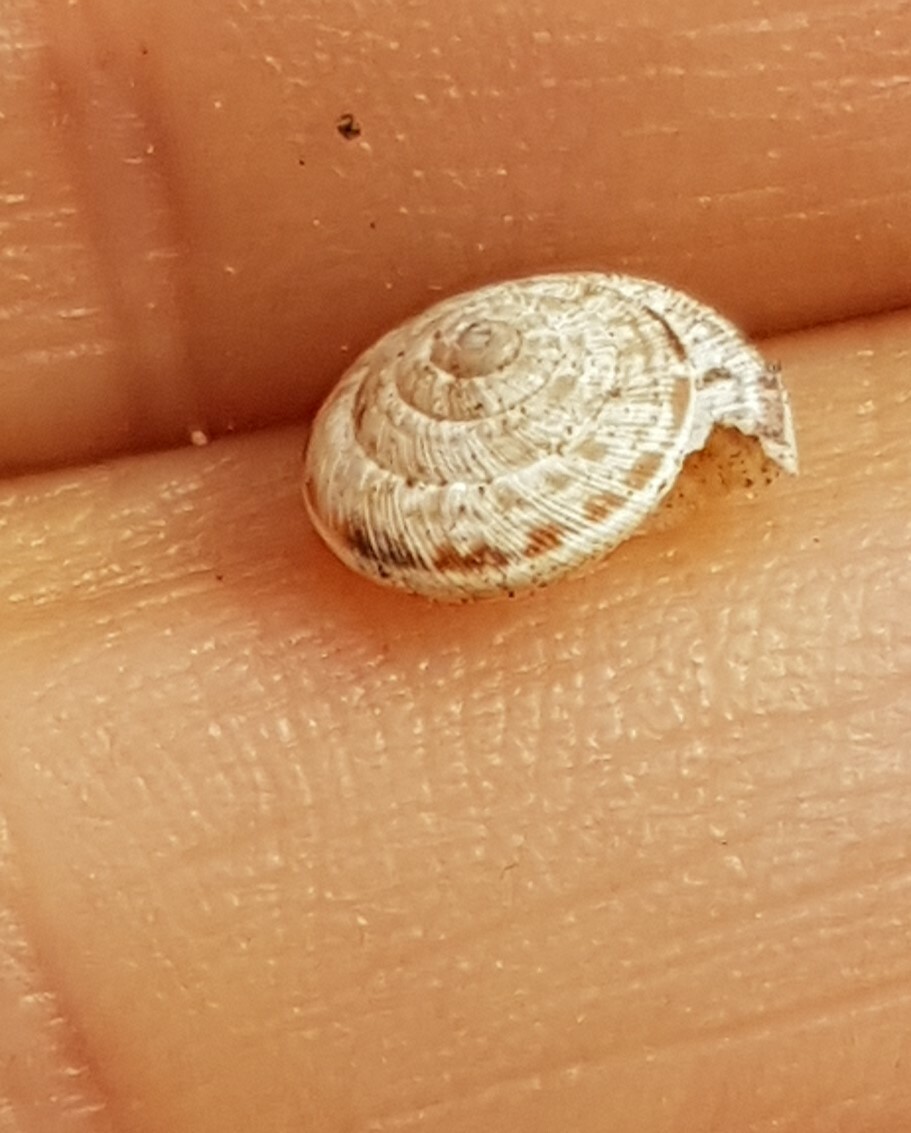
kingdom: Animalia
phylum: Mollusca
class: Gastropoda
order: Stylommatophora
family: Geomitridae
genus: Xeroplexa
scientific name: Xeroplexa intersecta
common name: Wrinkled snail
